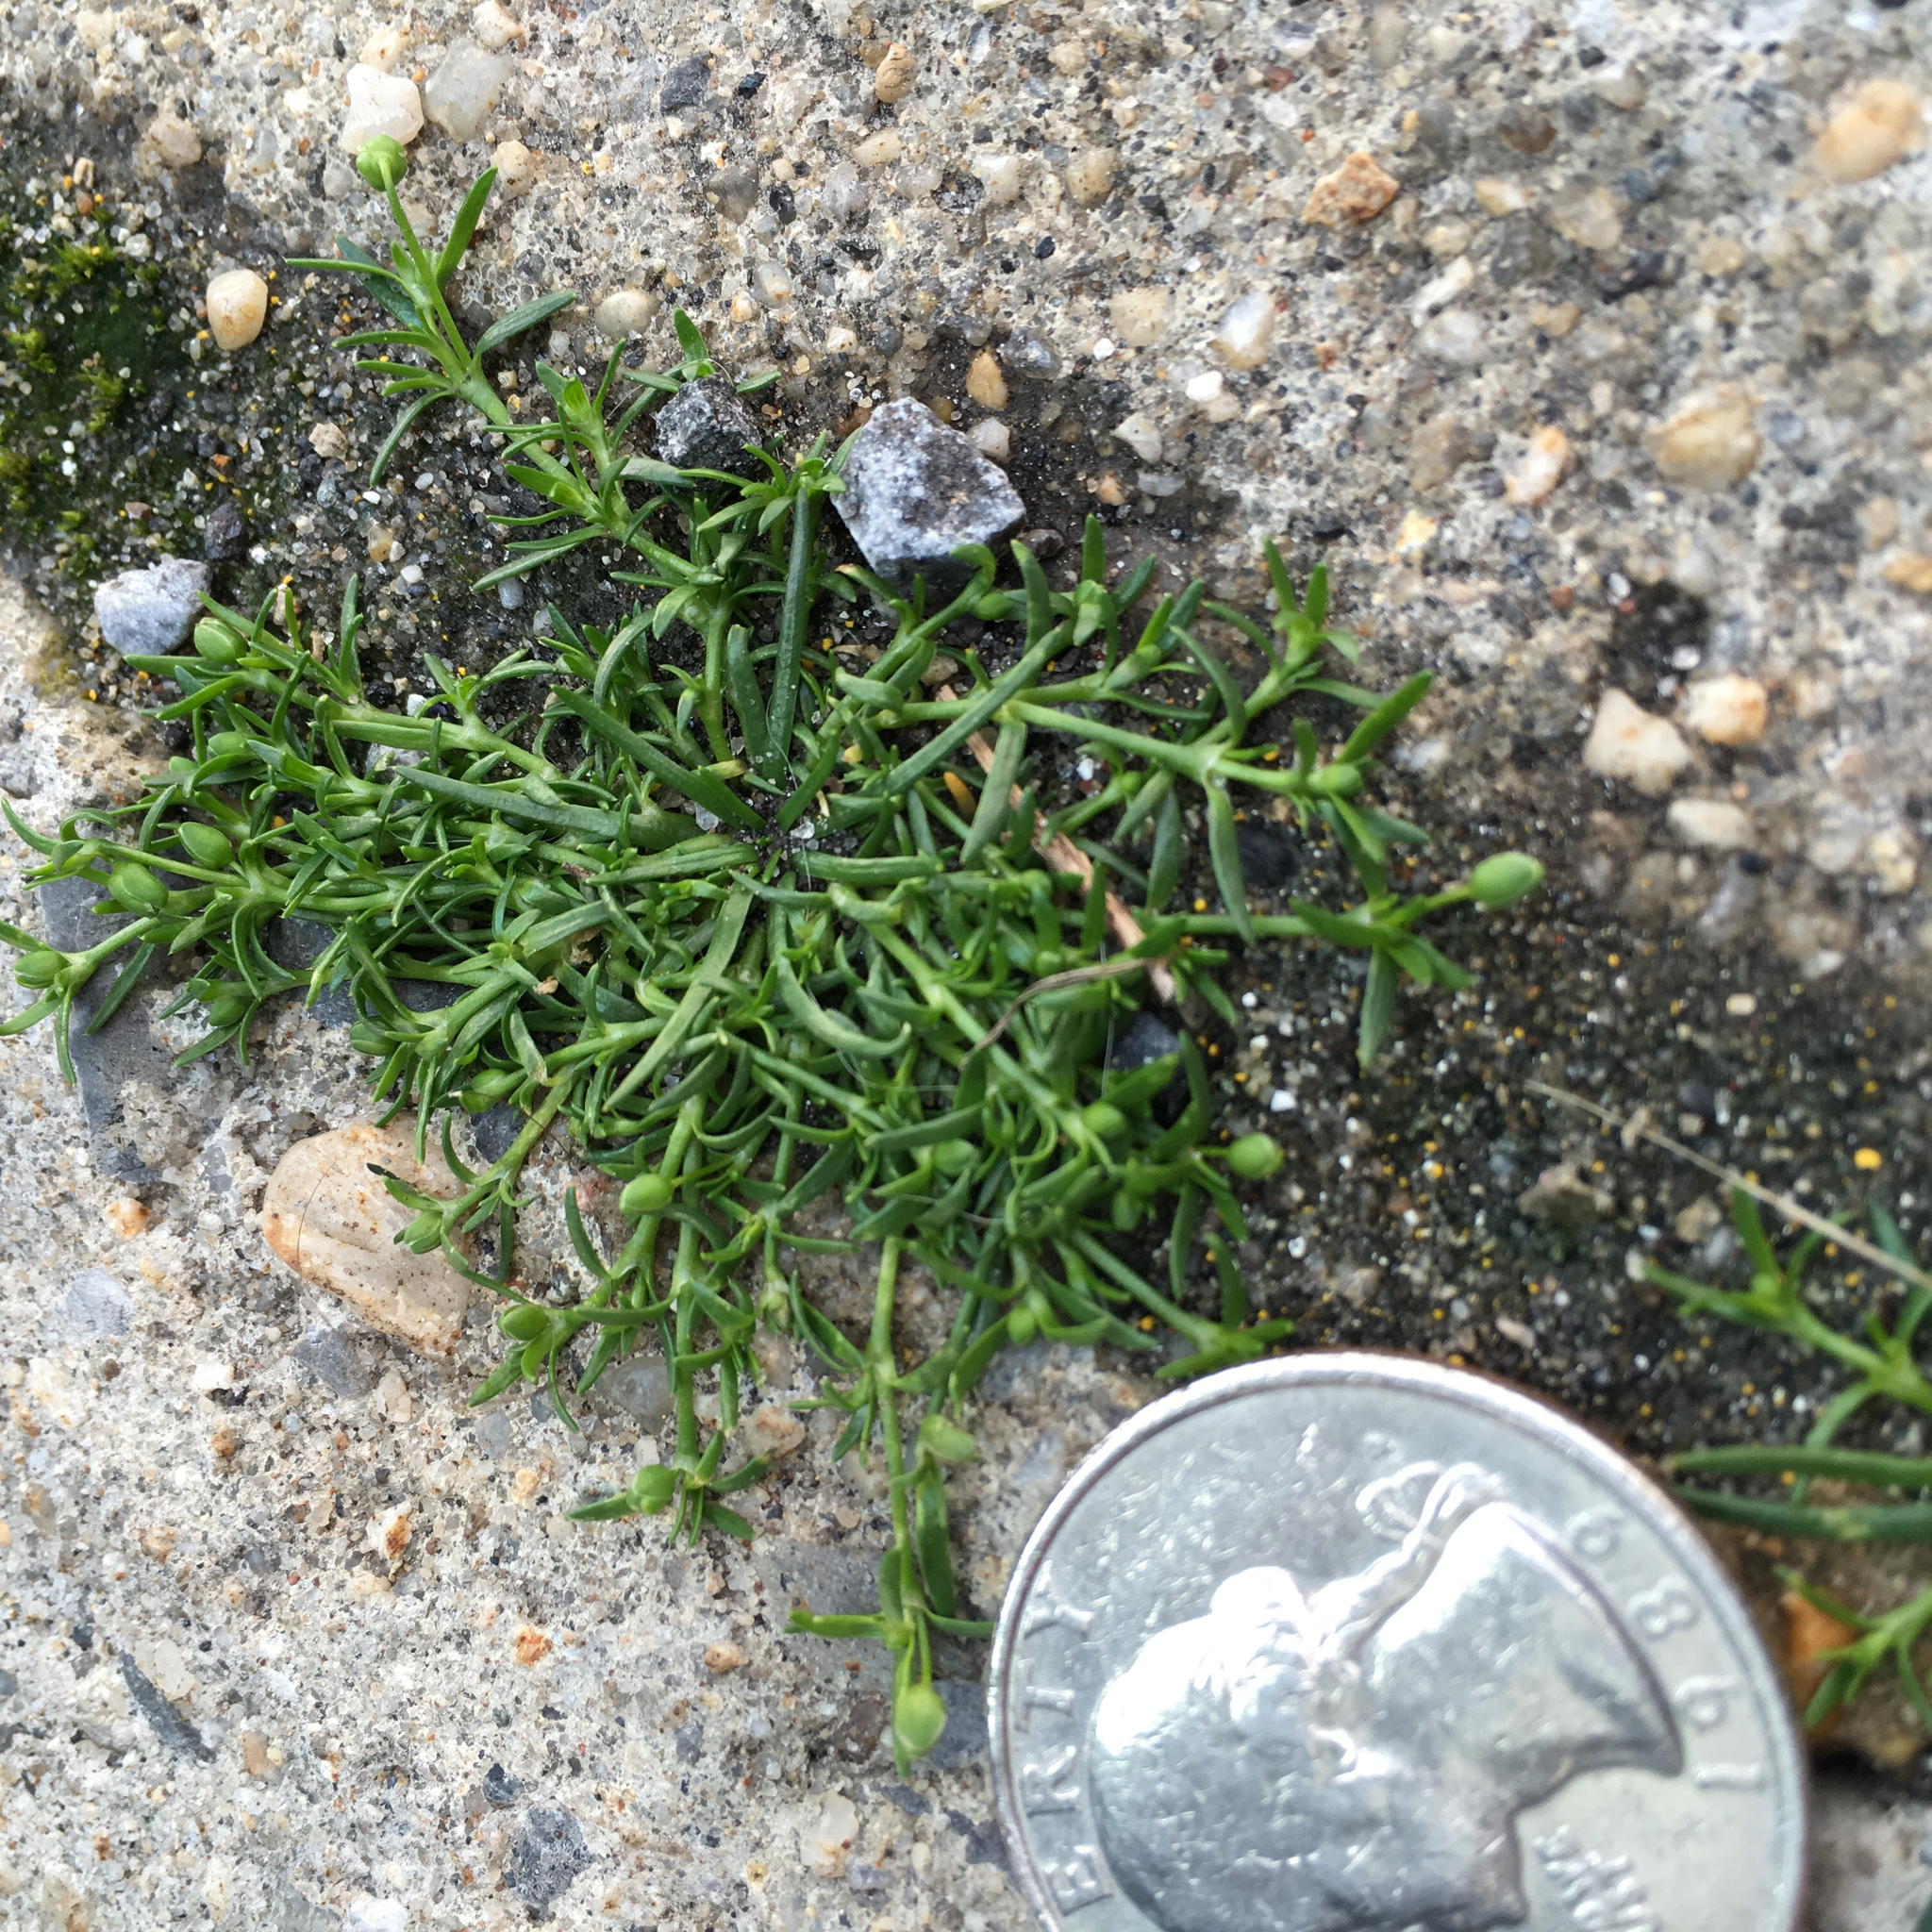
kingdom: Plantae
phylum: Tracheophyta
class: Magnoliopsida
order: Caryophyllales
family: Caryophyllaceae
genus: Sagina
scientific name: Sagina procumbens
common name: Procumbent pearlwort
